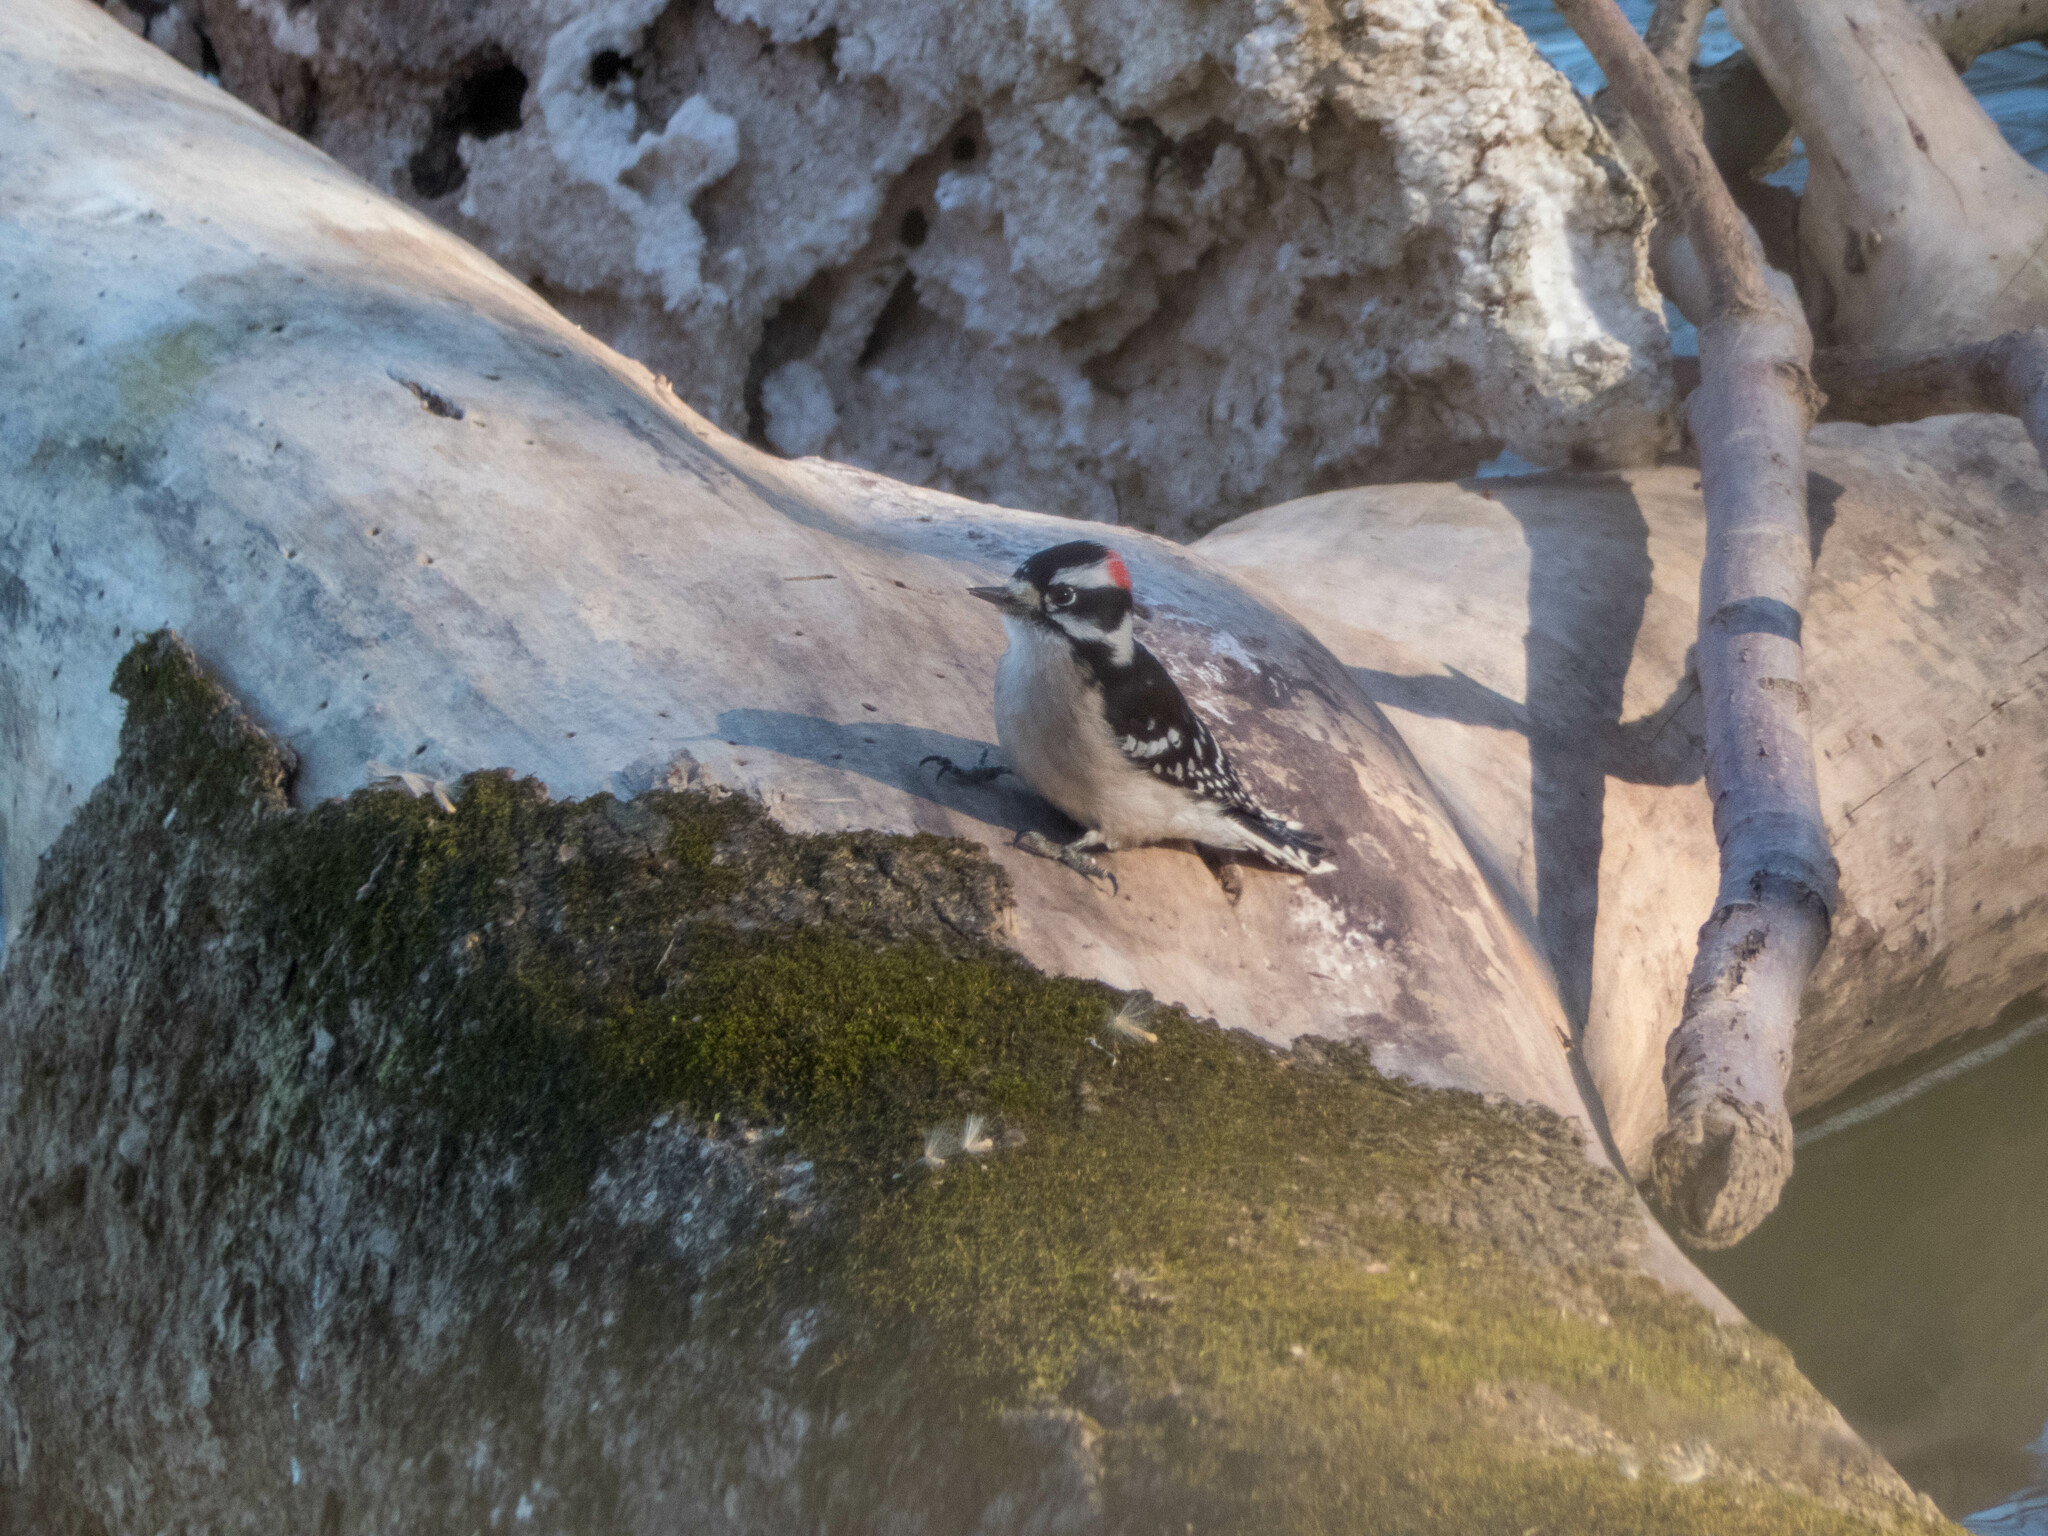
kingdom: Animalia
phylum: Chordata
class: Aves
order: Piciformes
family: Picidae
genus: Dryobates
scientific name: Dryobates pubescens
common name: Downy woodpecker
